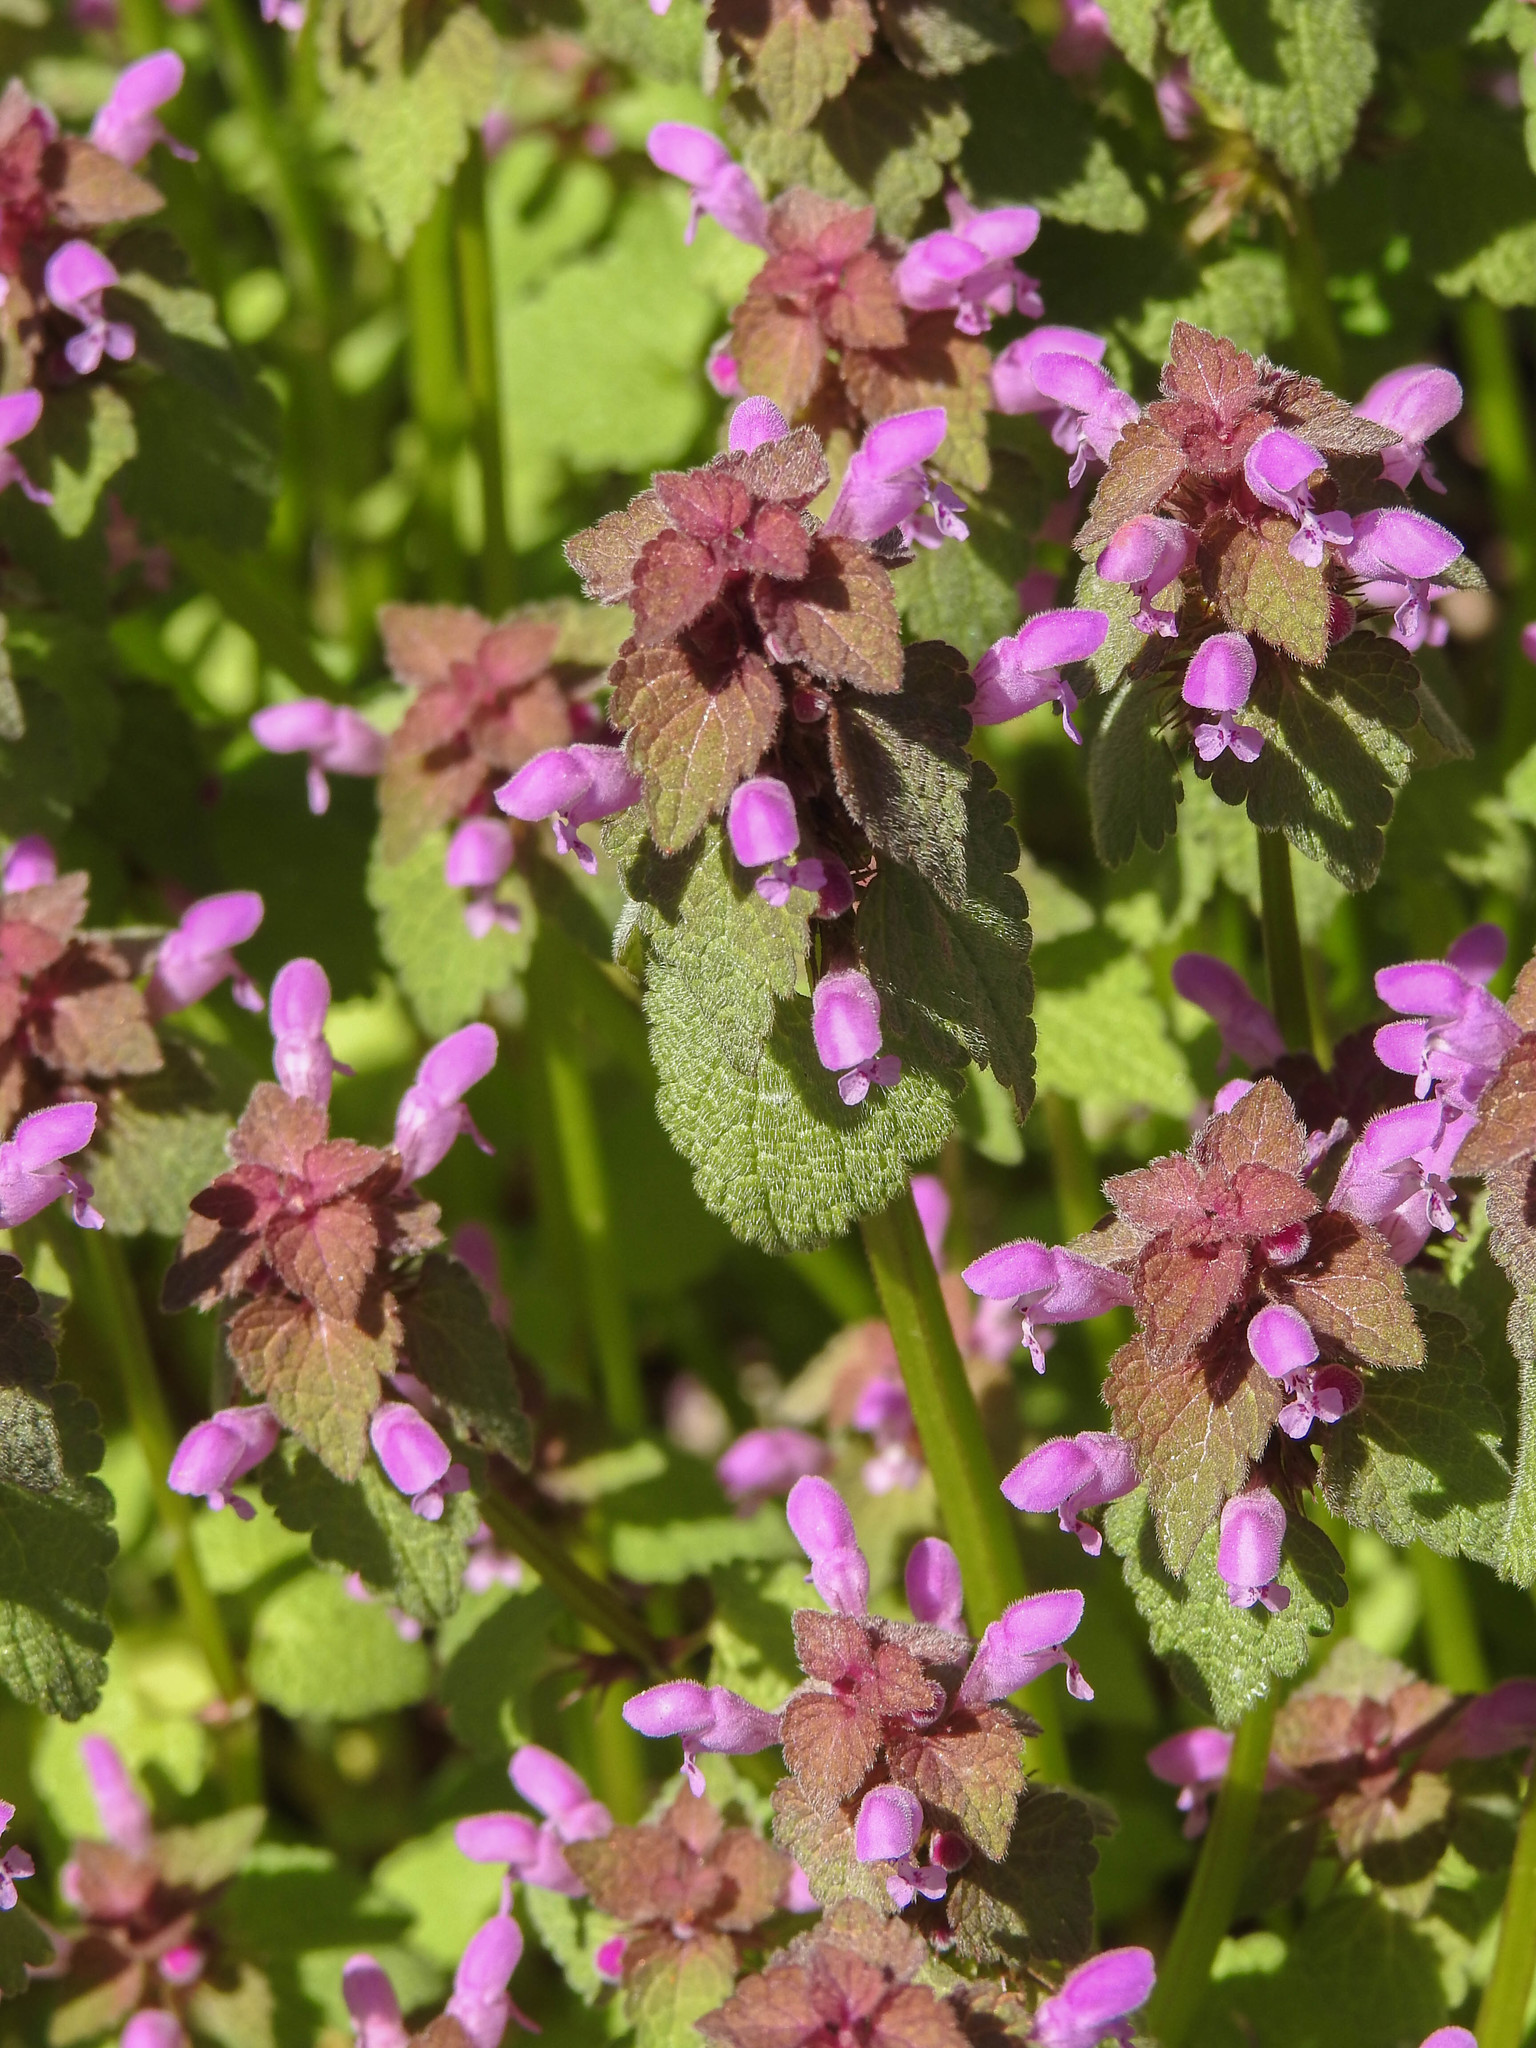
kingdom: Plantae
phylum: Tracheophyta
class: Magnoliopsida
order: Lamiales
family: Lamiaceae
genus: Lamium
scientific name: Lamium purpureum
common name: Red dead-nettle
